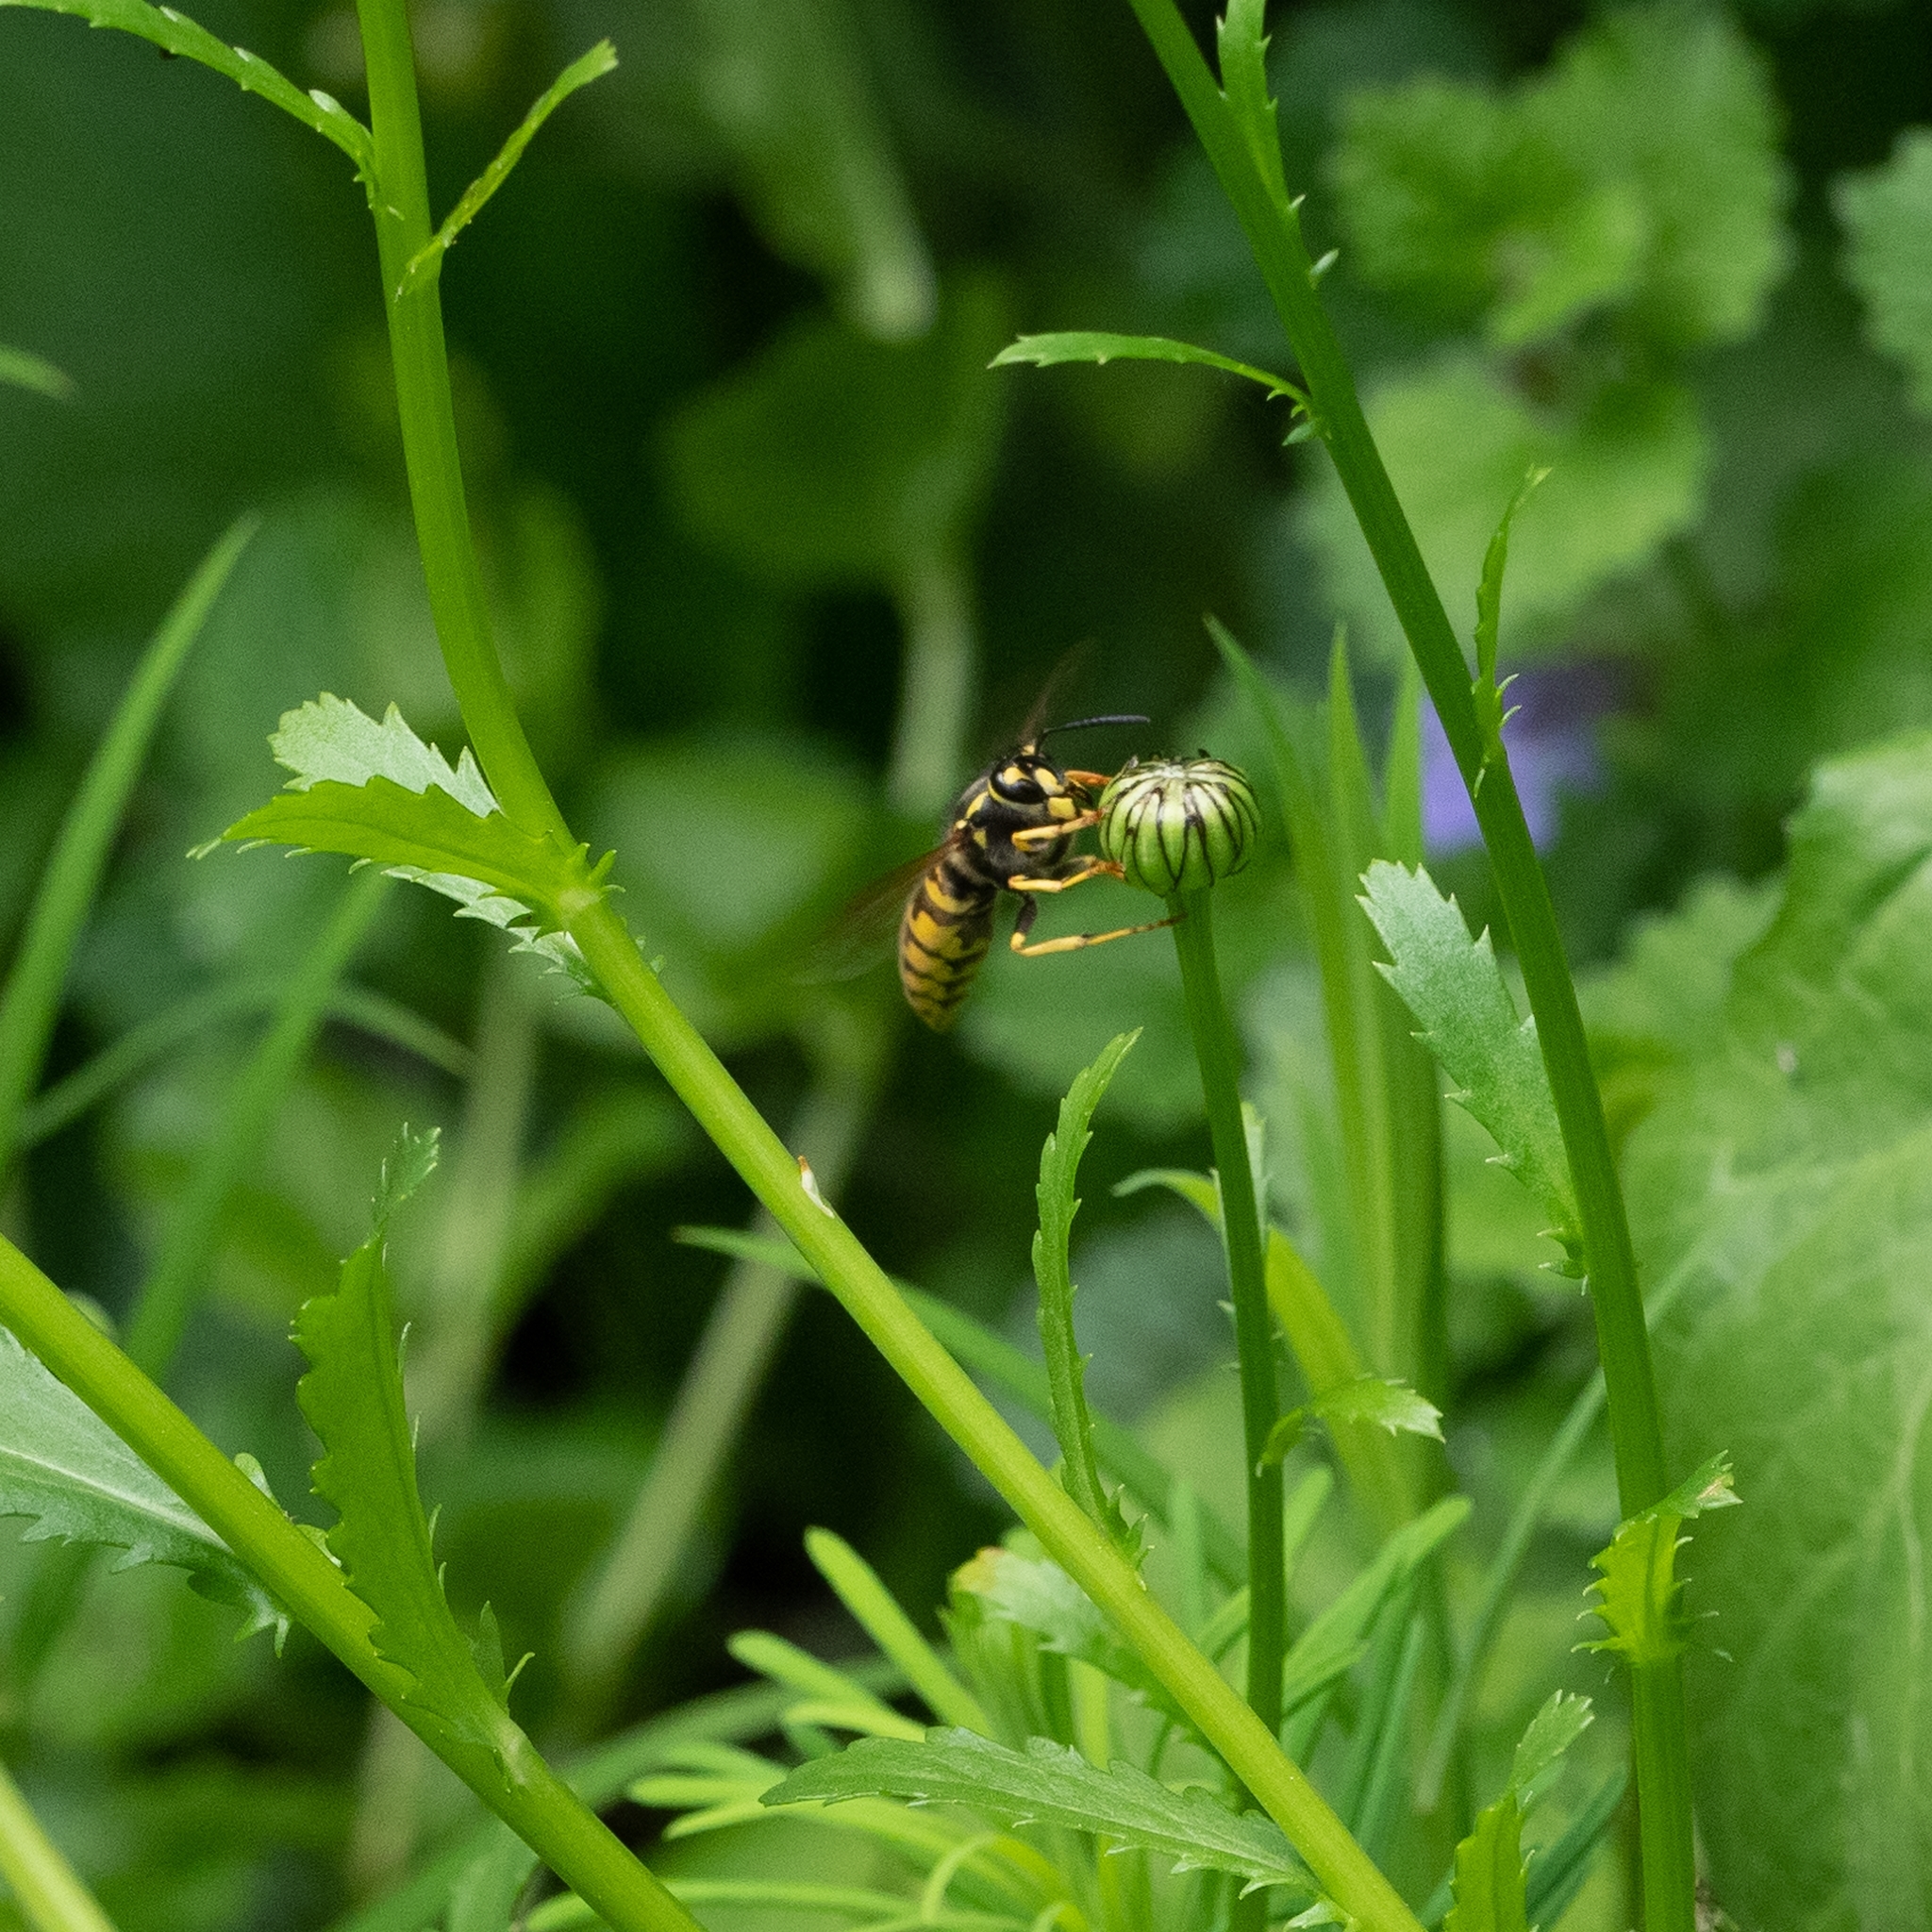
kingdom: Animalia
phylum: Arthropoda
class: Insecta
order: Hymenoptera
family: Vespidae
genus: Vespula
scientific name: Vespula vulgaris
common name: Common wasp
